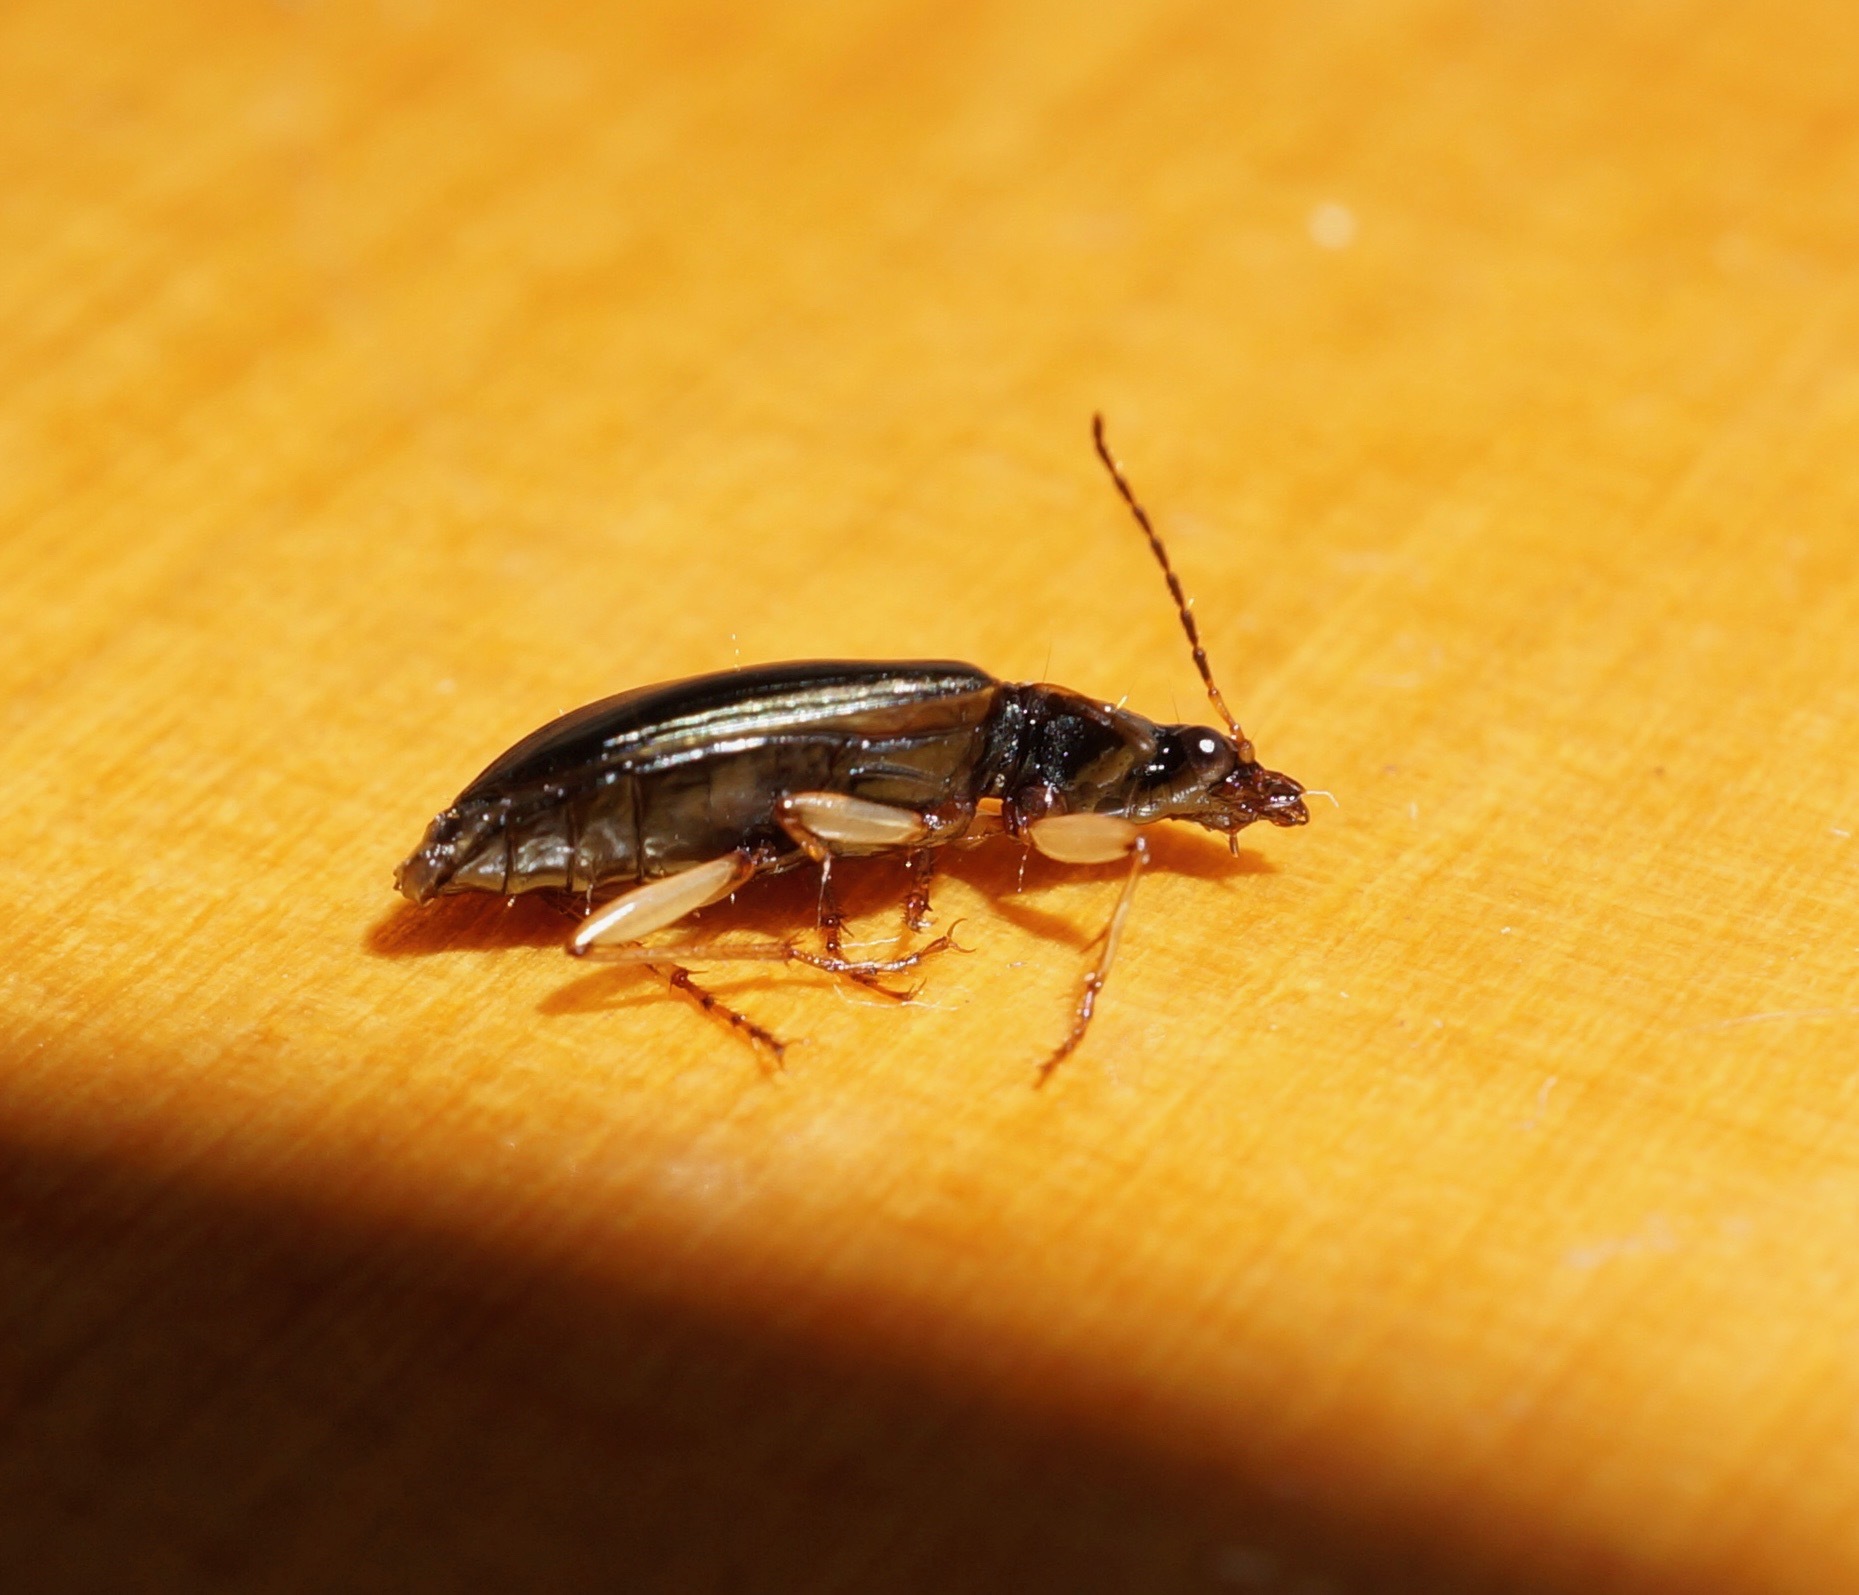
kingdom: Animalia
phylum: Arthropoda
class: Insecta
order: Coleoptera
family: Carabidae
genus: Notagonum
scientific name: Notagonum submetallicum
